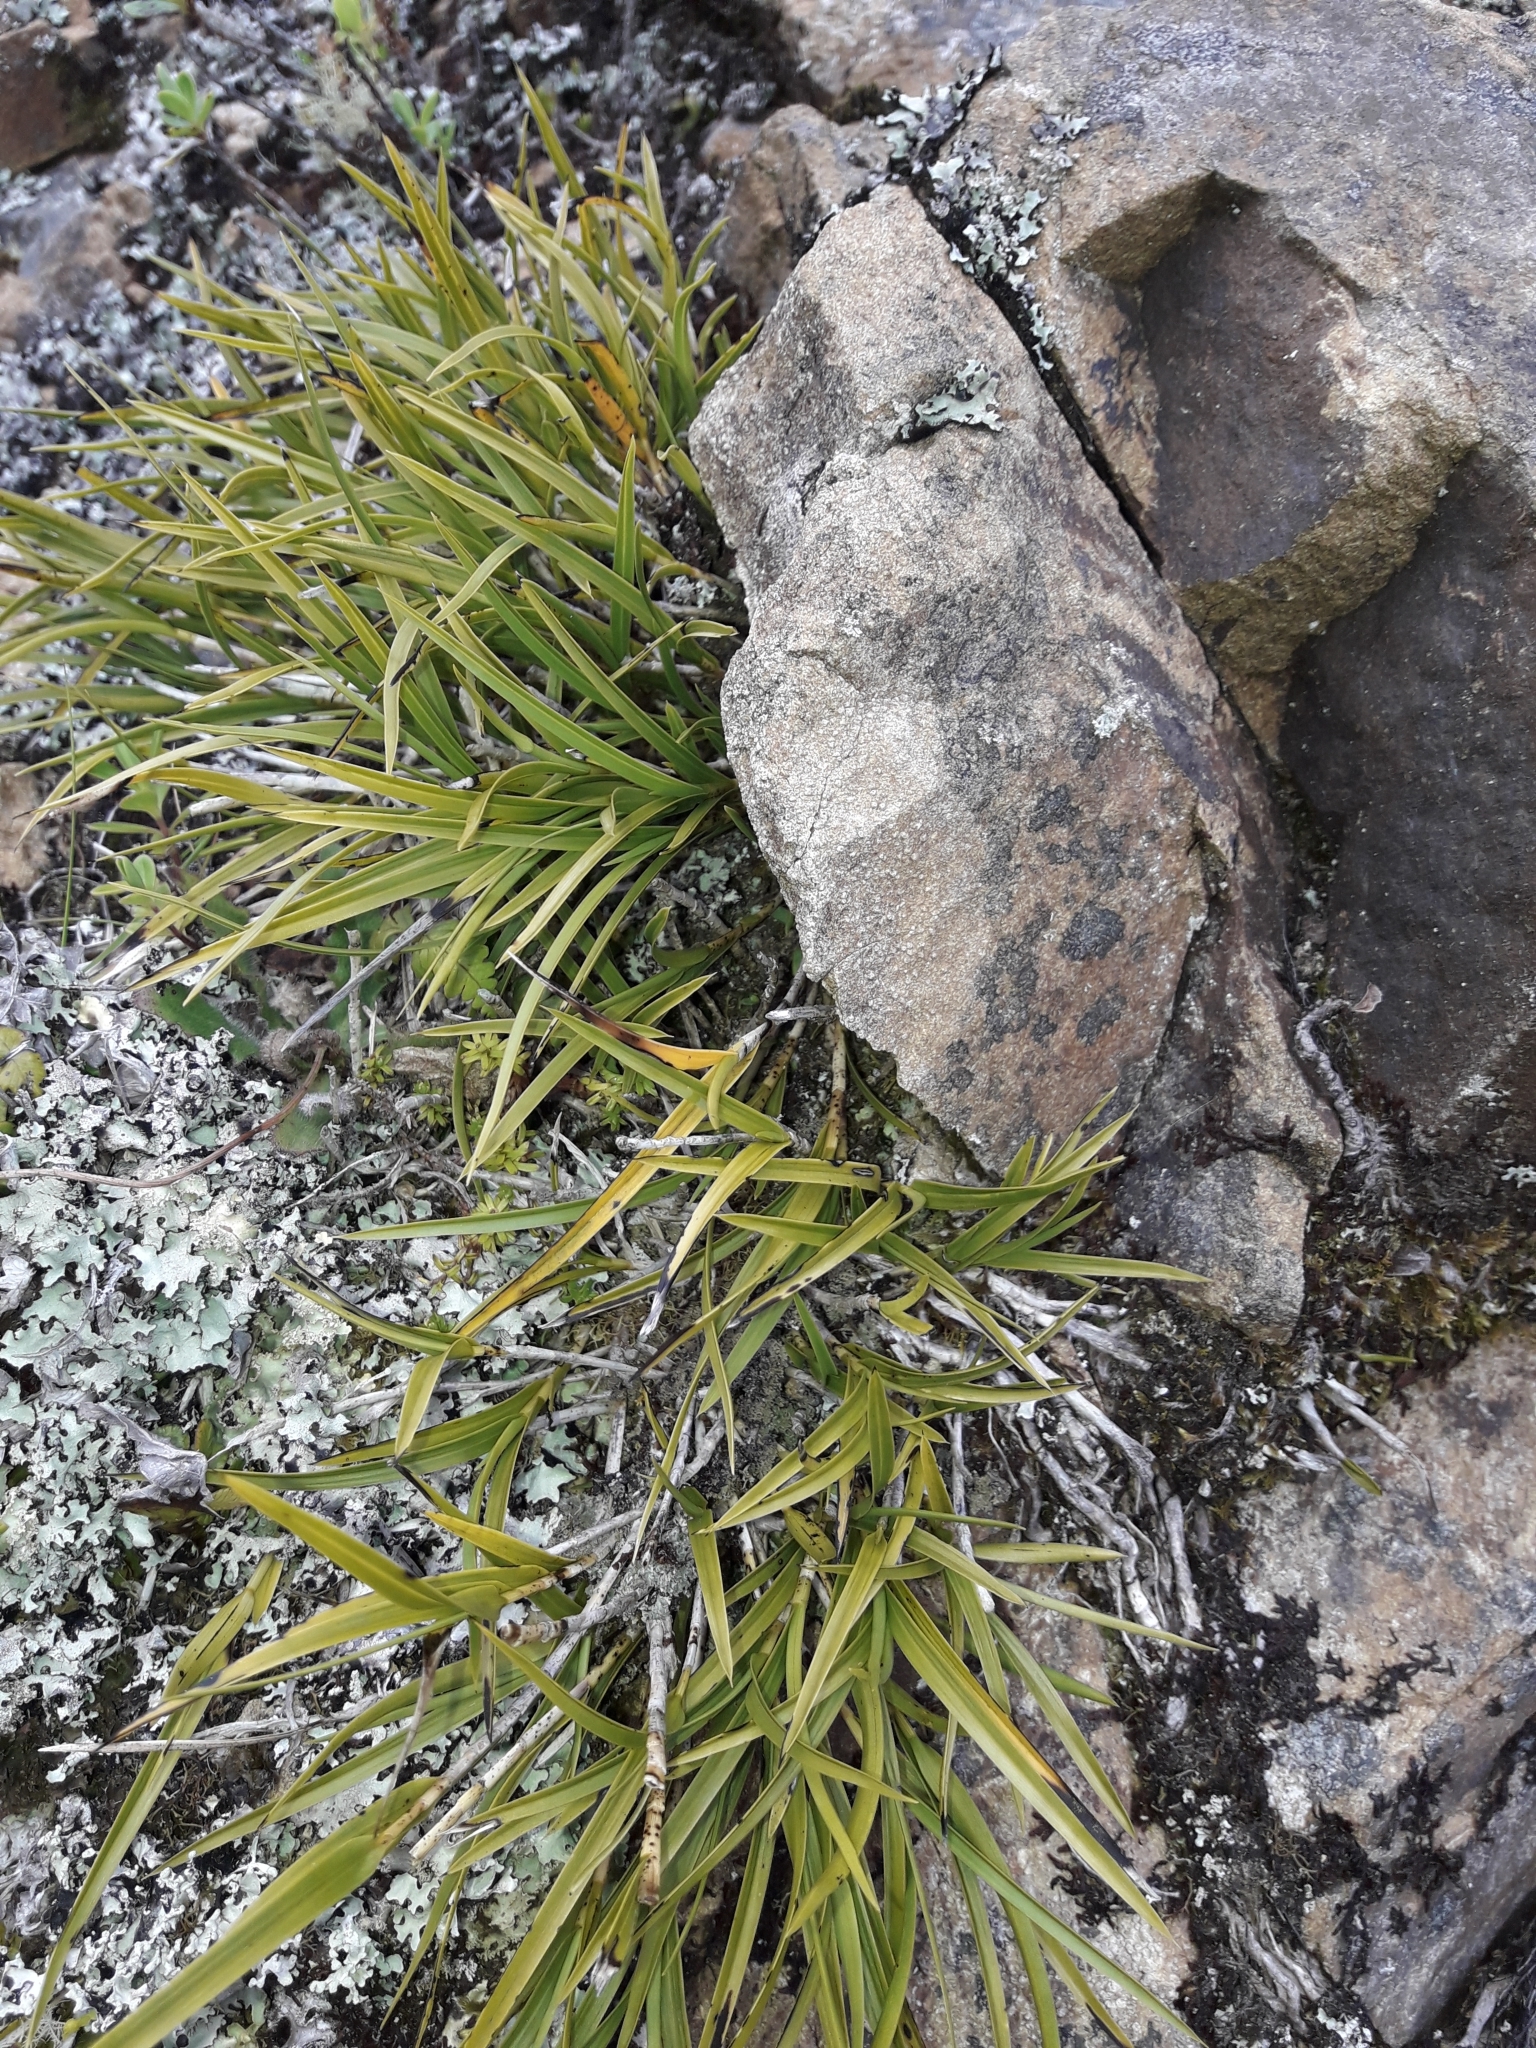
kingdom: Plantae
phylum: Tracheophyta
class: Liliopsida
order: Asparagales
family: Orchidaceae
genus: Earina
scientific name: Earina mucronata
